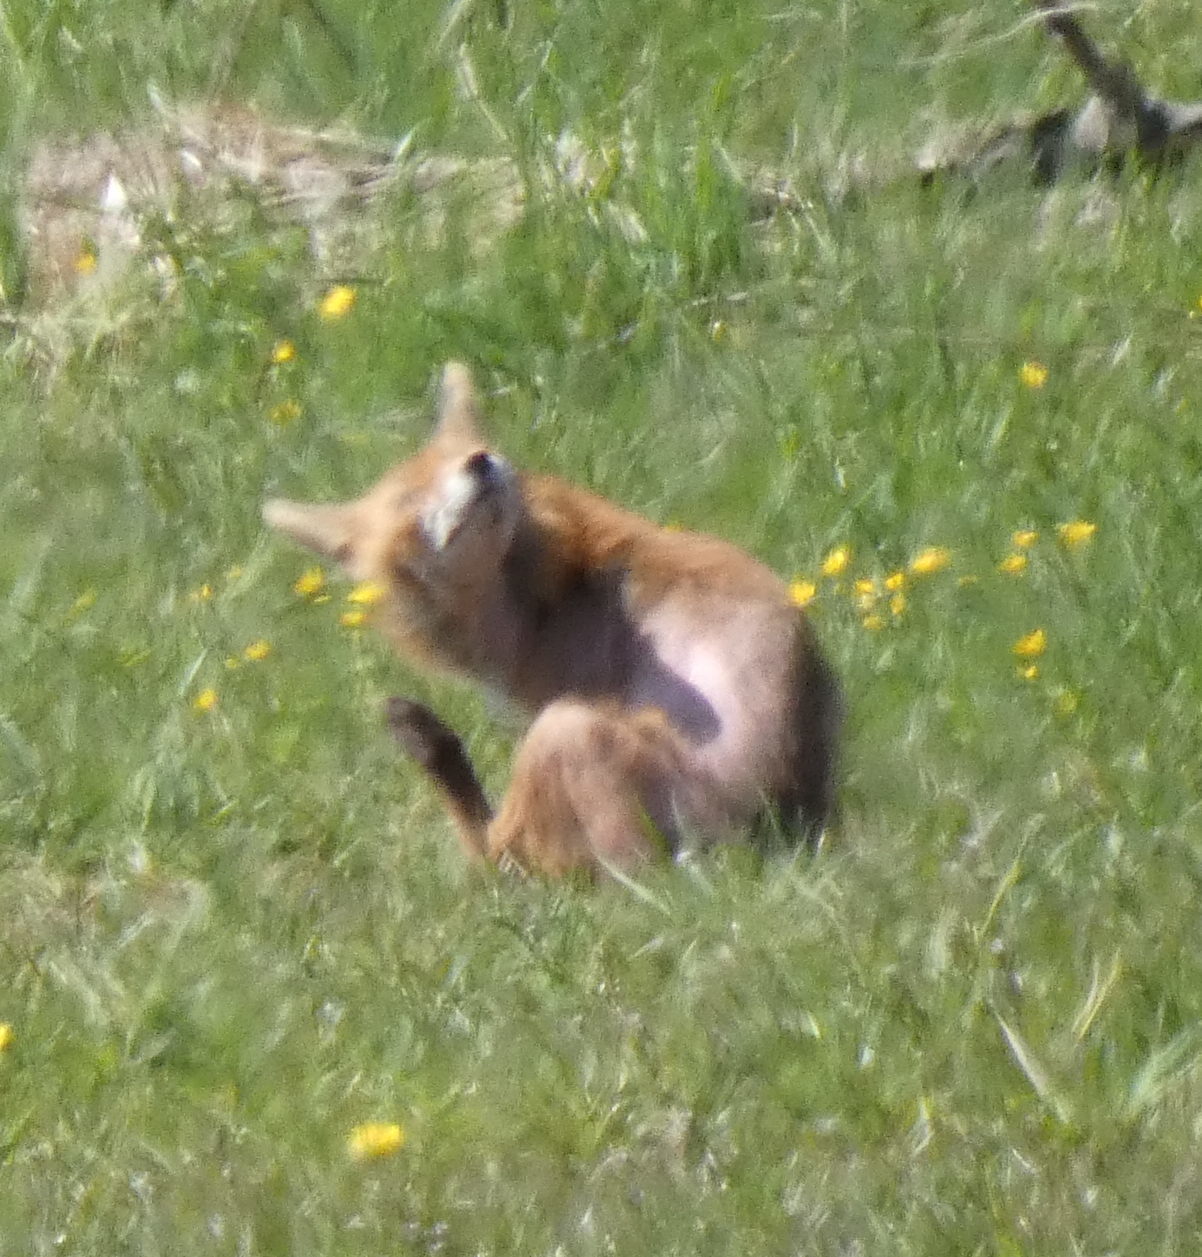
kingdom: Animalia
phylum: Chordata
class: Mammalia
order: Carnivora
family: Canidae
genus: Vulpes
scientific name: Vulpes vulpes
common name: Red fox
